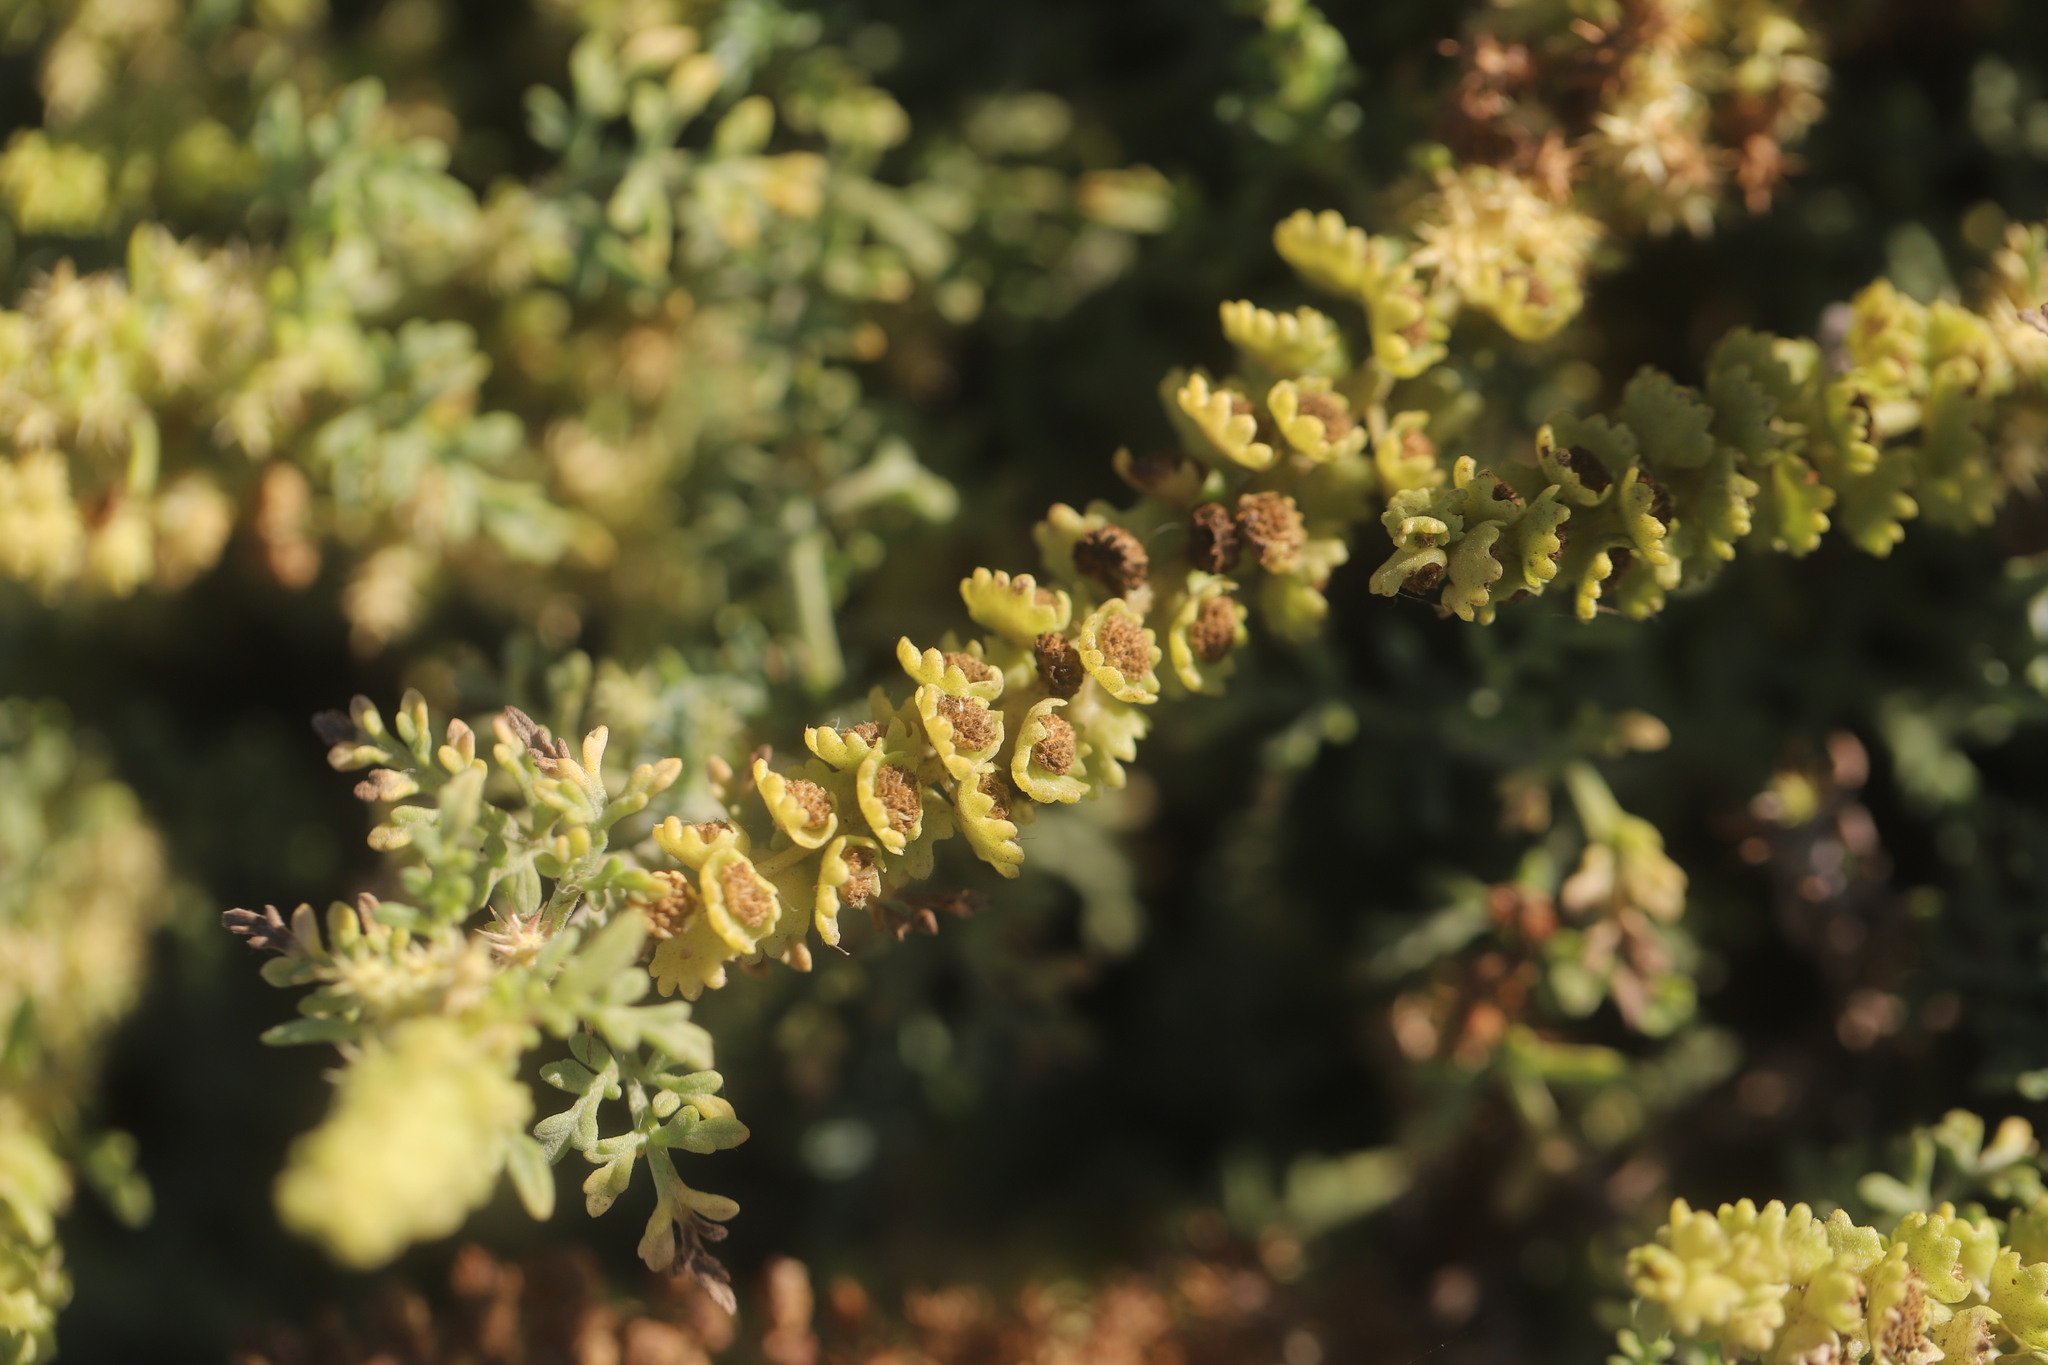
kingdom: Plantae
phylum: Tracheophyta
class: Magnoliopsida
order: Asterales
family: Asteraceae
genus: Ambrosia
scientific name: Ambrosia chamissonis
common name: Beachbur
